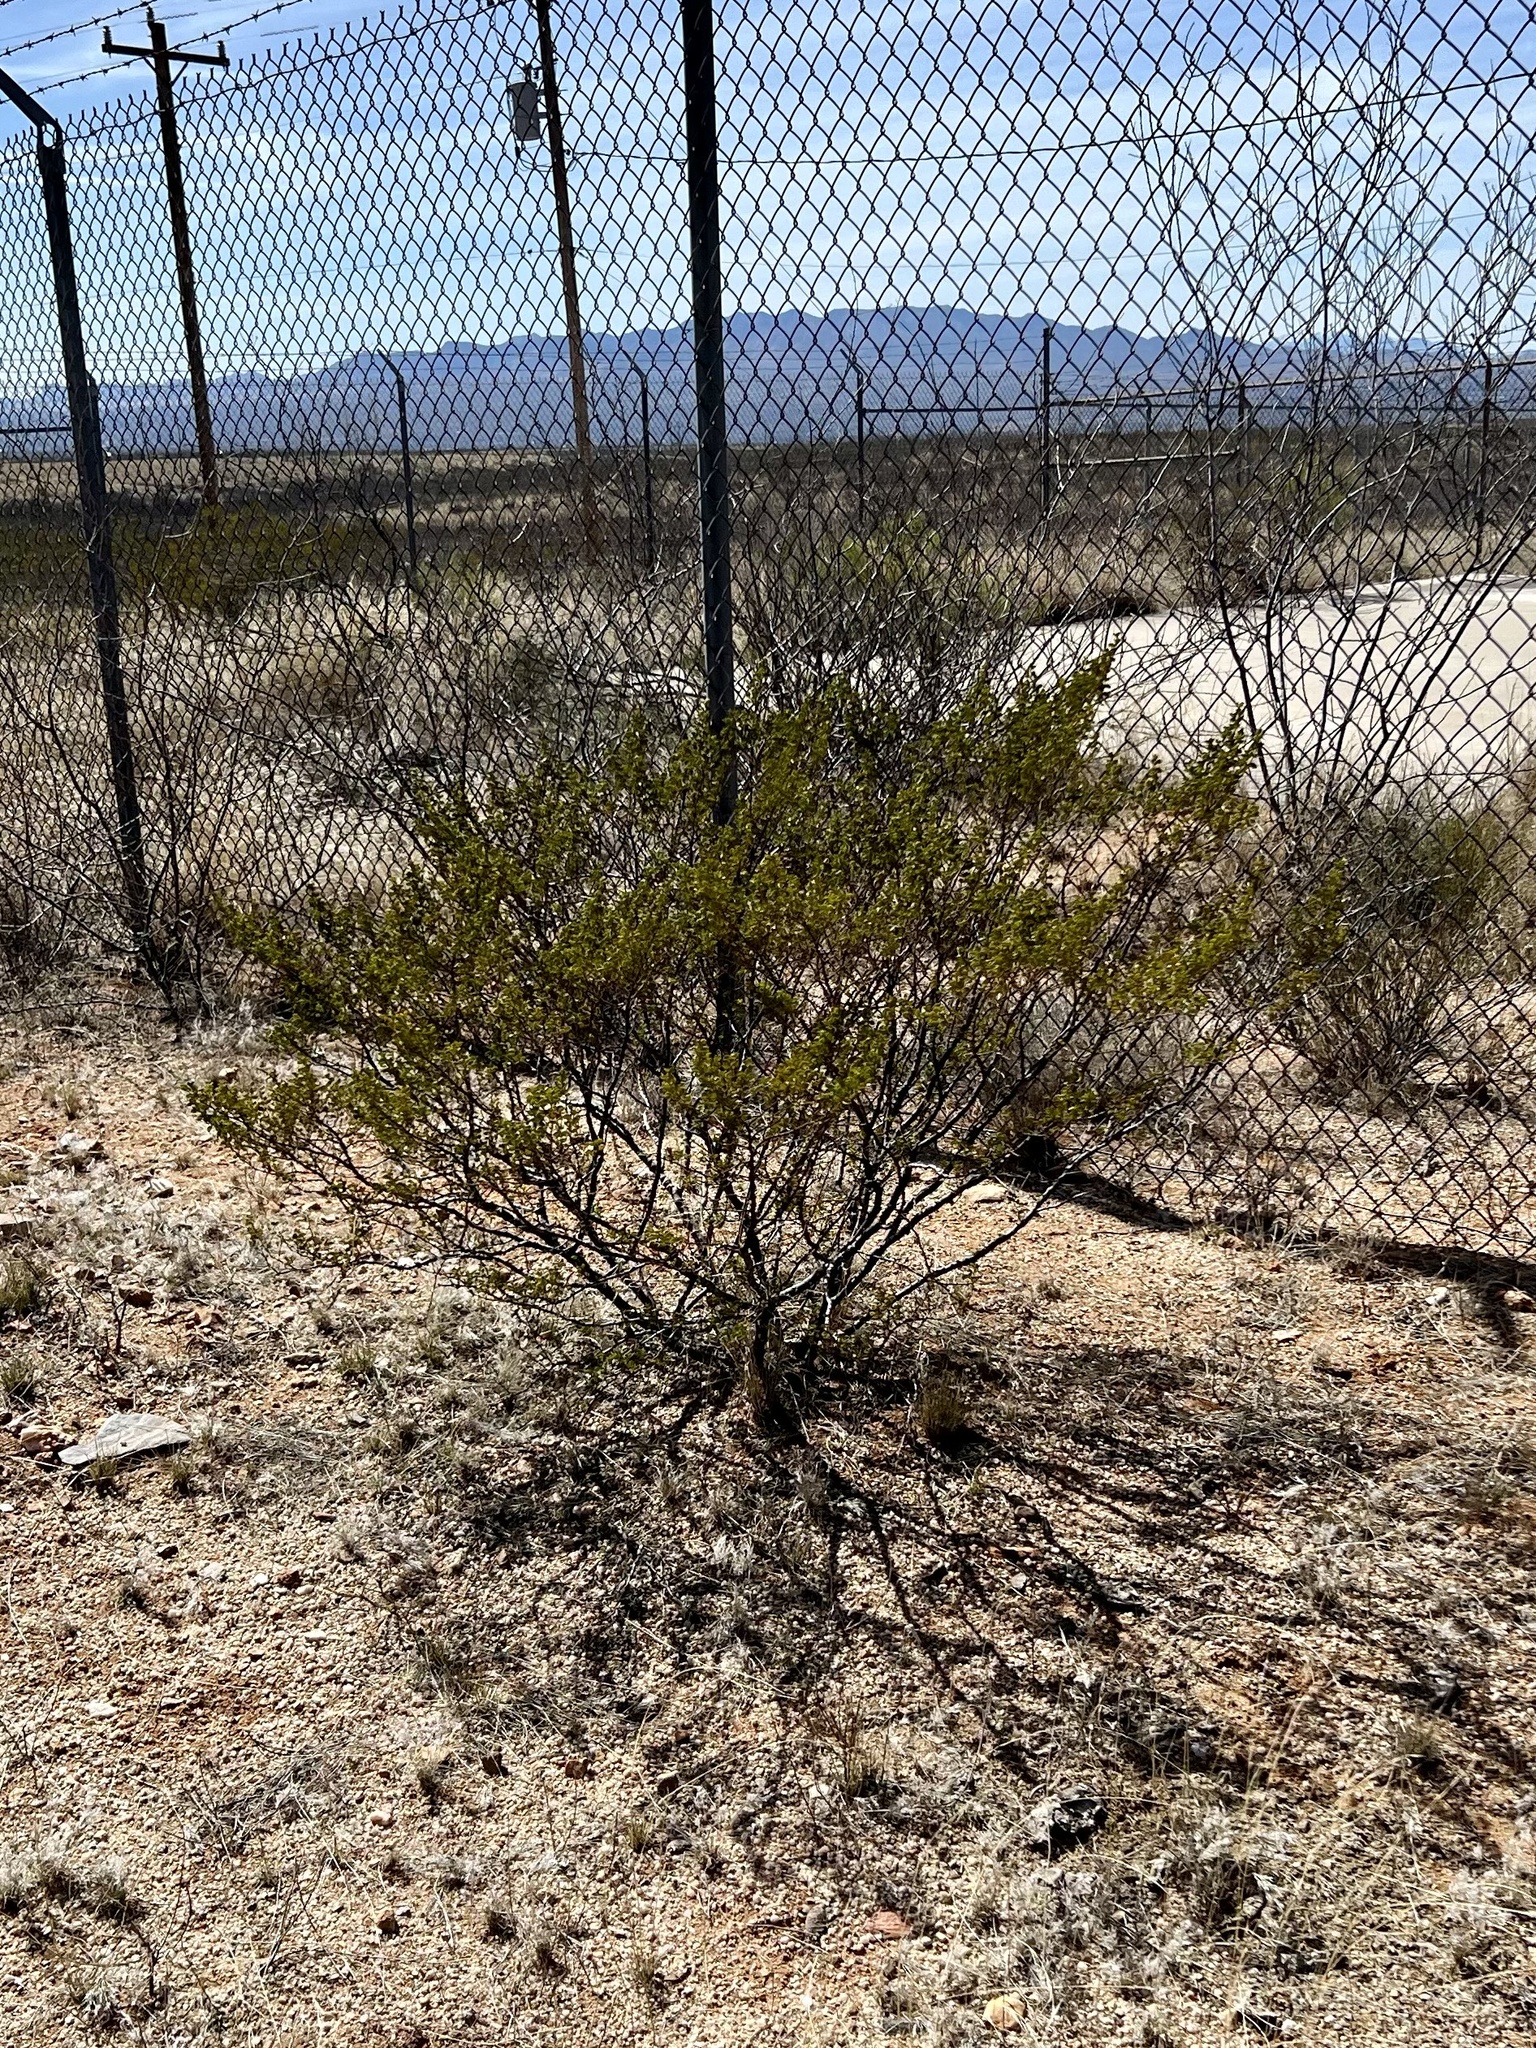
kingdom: Plantae
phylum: Tracheophyta
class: Magnoliopsida
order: Zygophyllales
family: Zygophyllaceae
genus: Larrea
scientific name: Larrea tridentata
